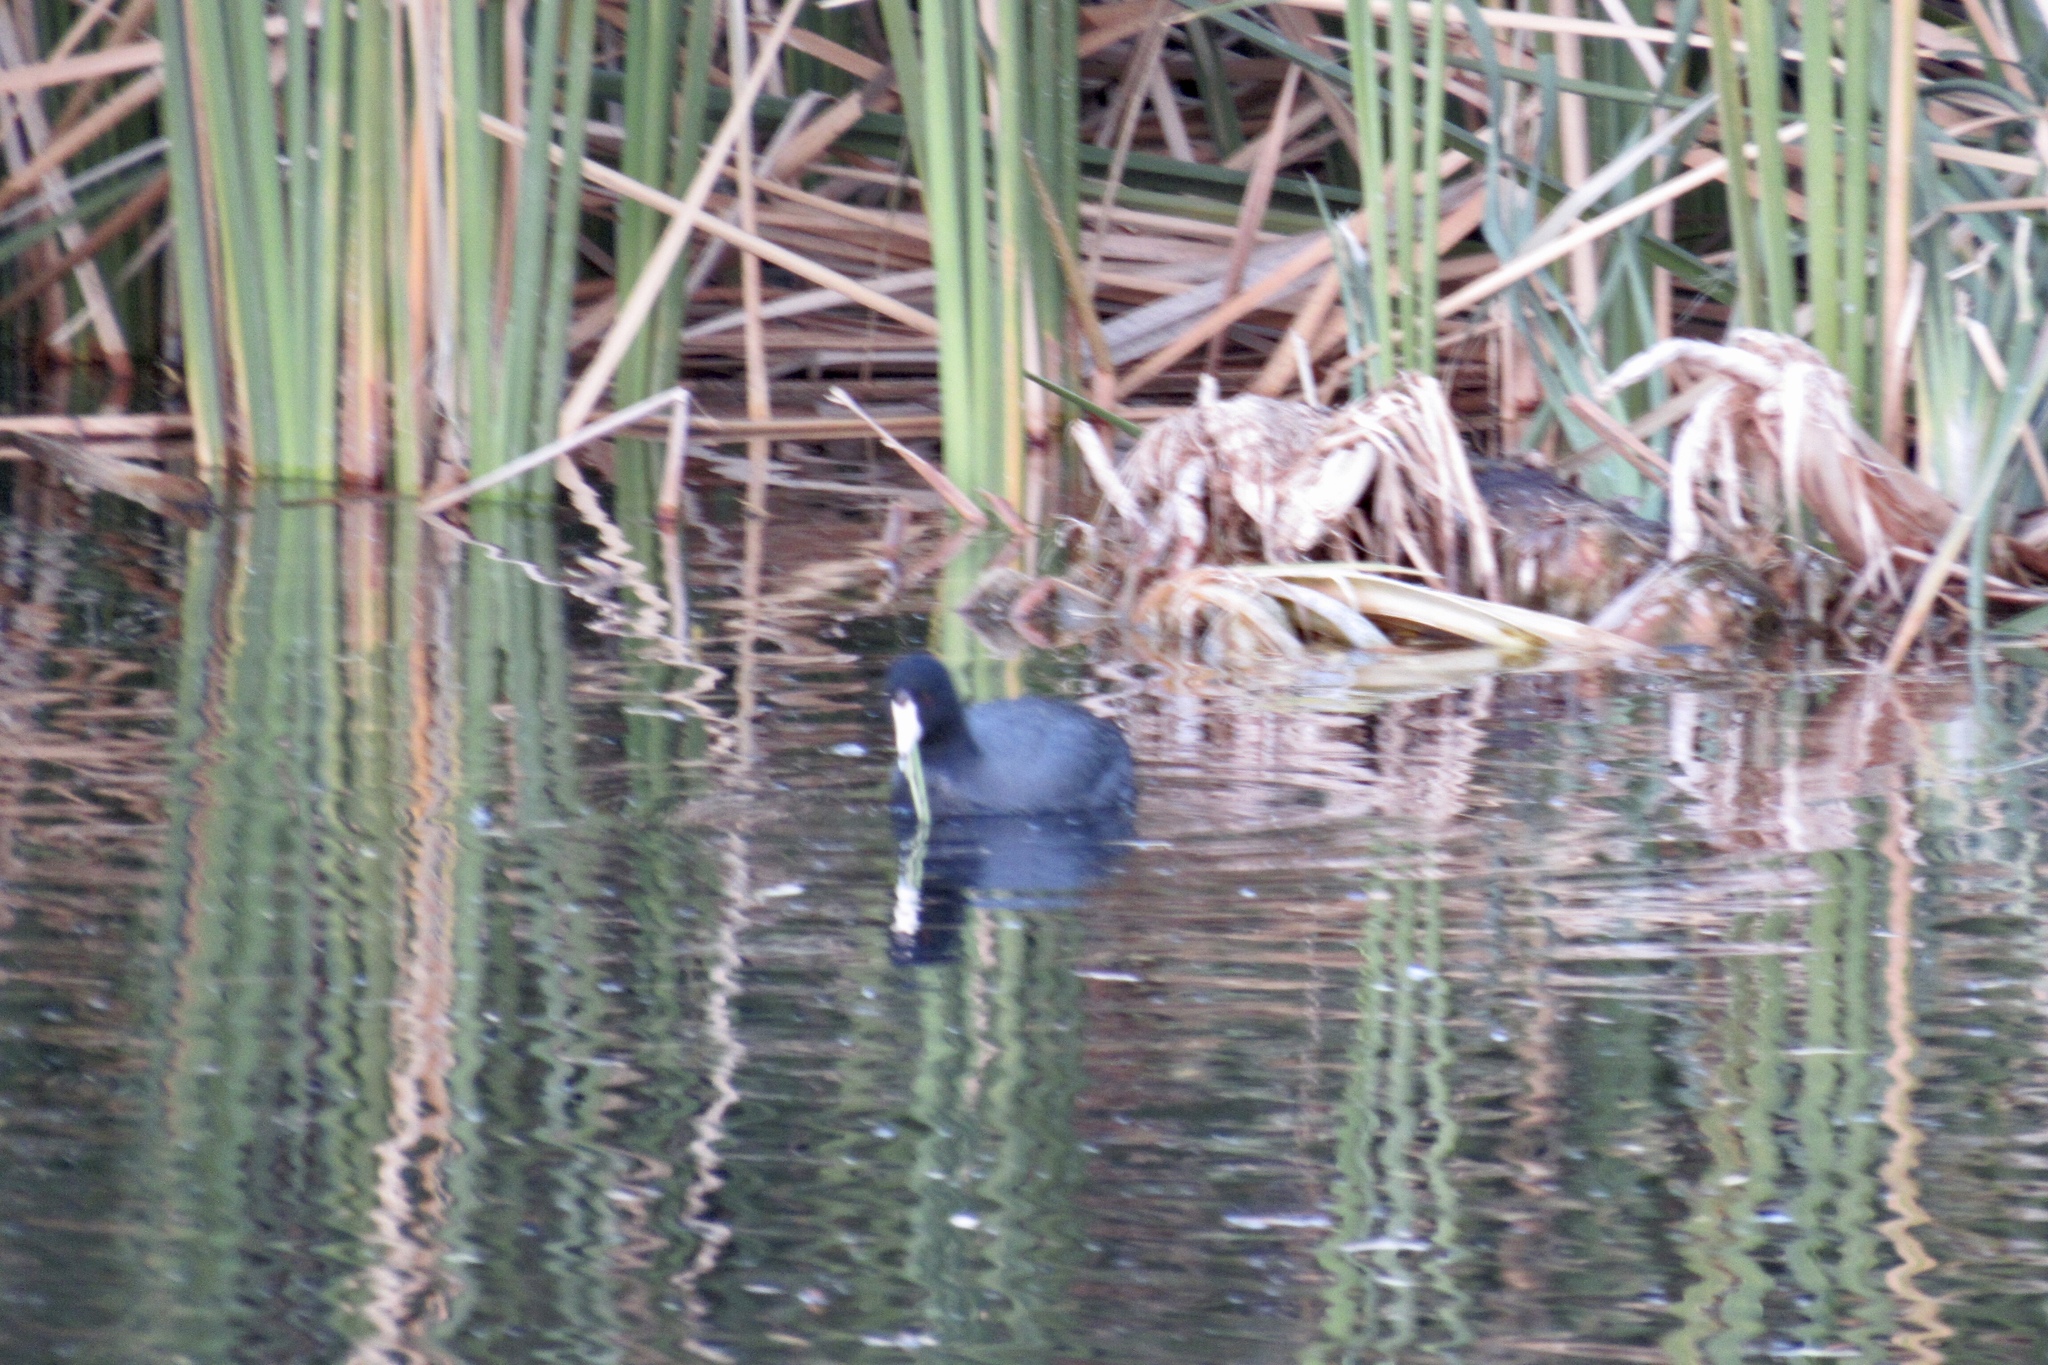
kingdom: Animalia
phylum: Chordata
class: Aves
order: Gruiformes
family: Rallidae
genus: Fulica
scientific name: Fulica americana
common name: American coot
